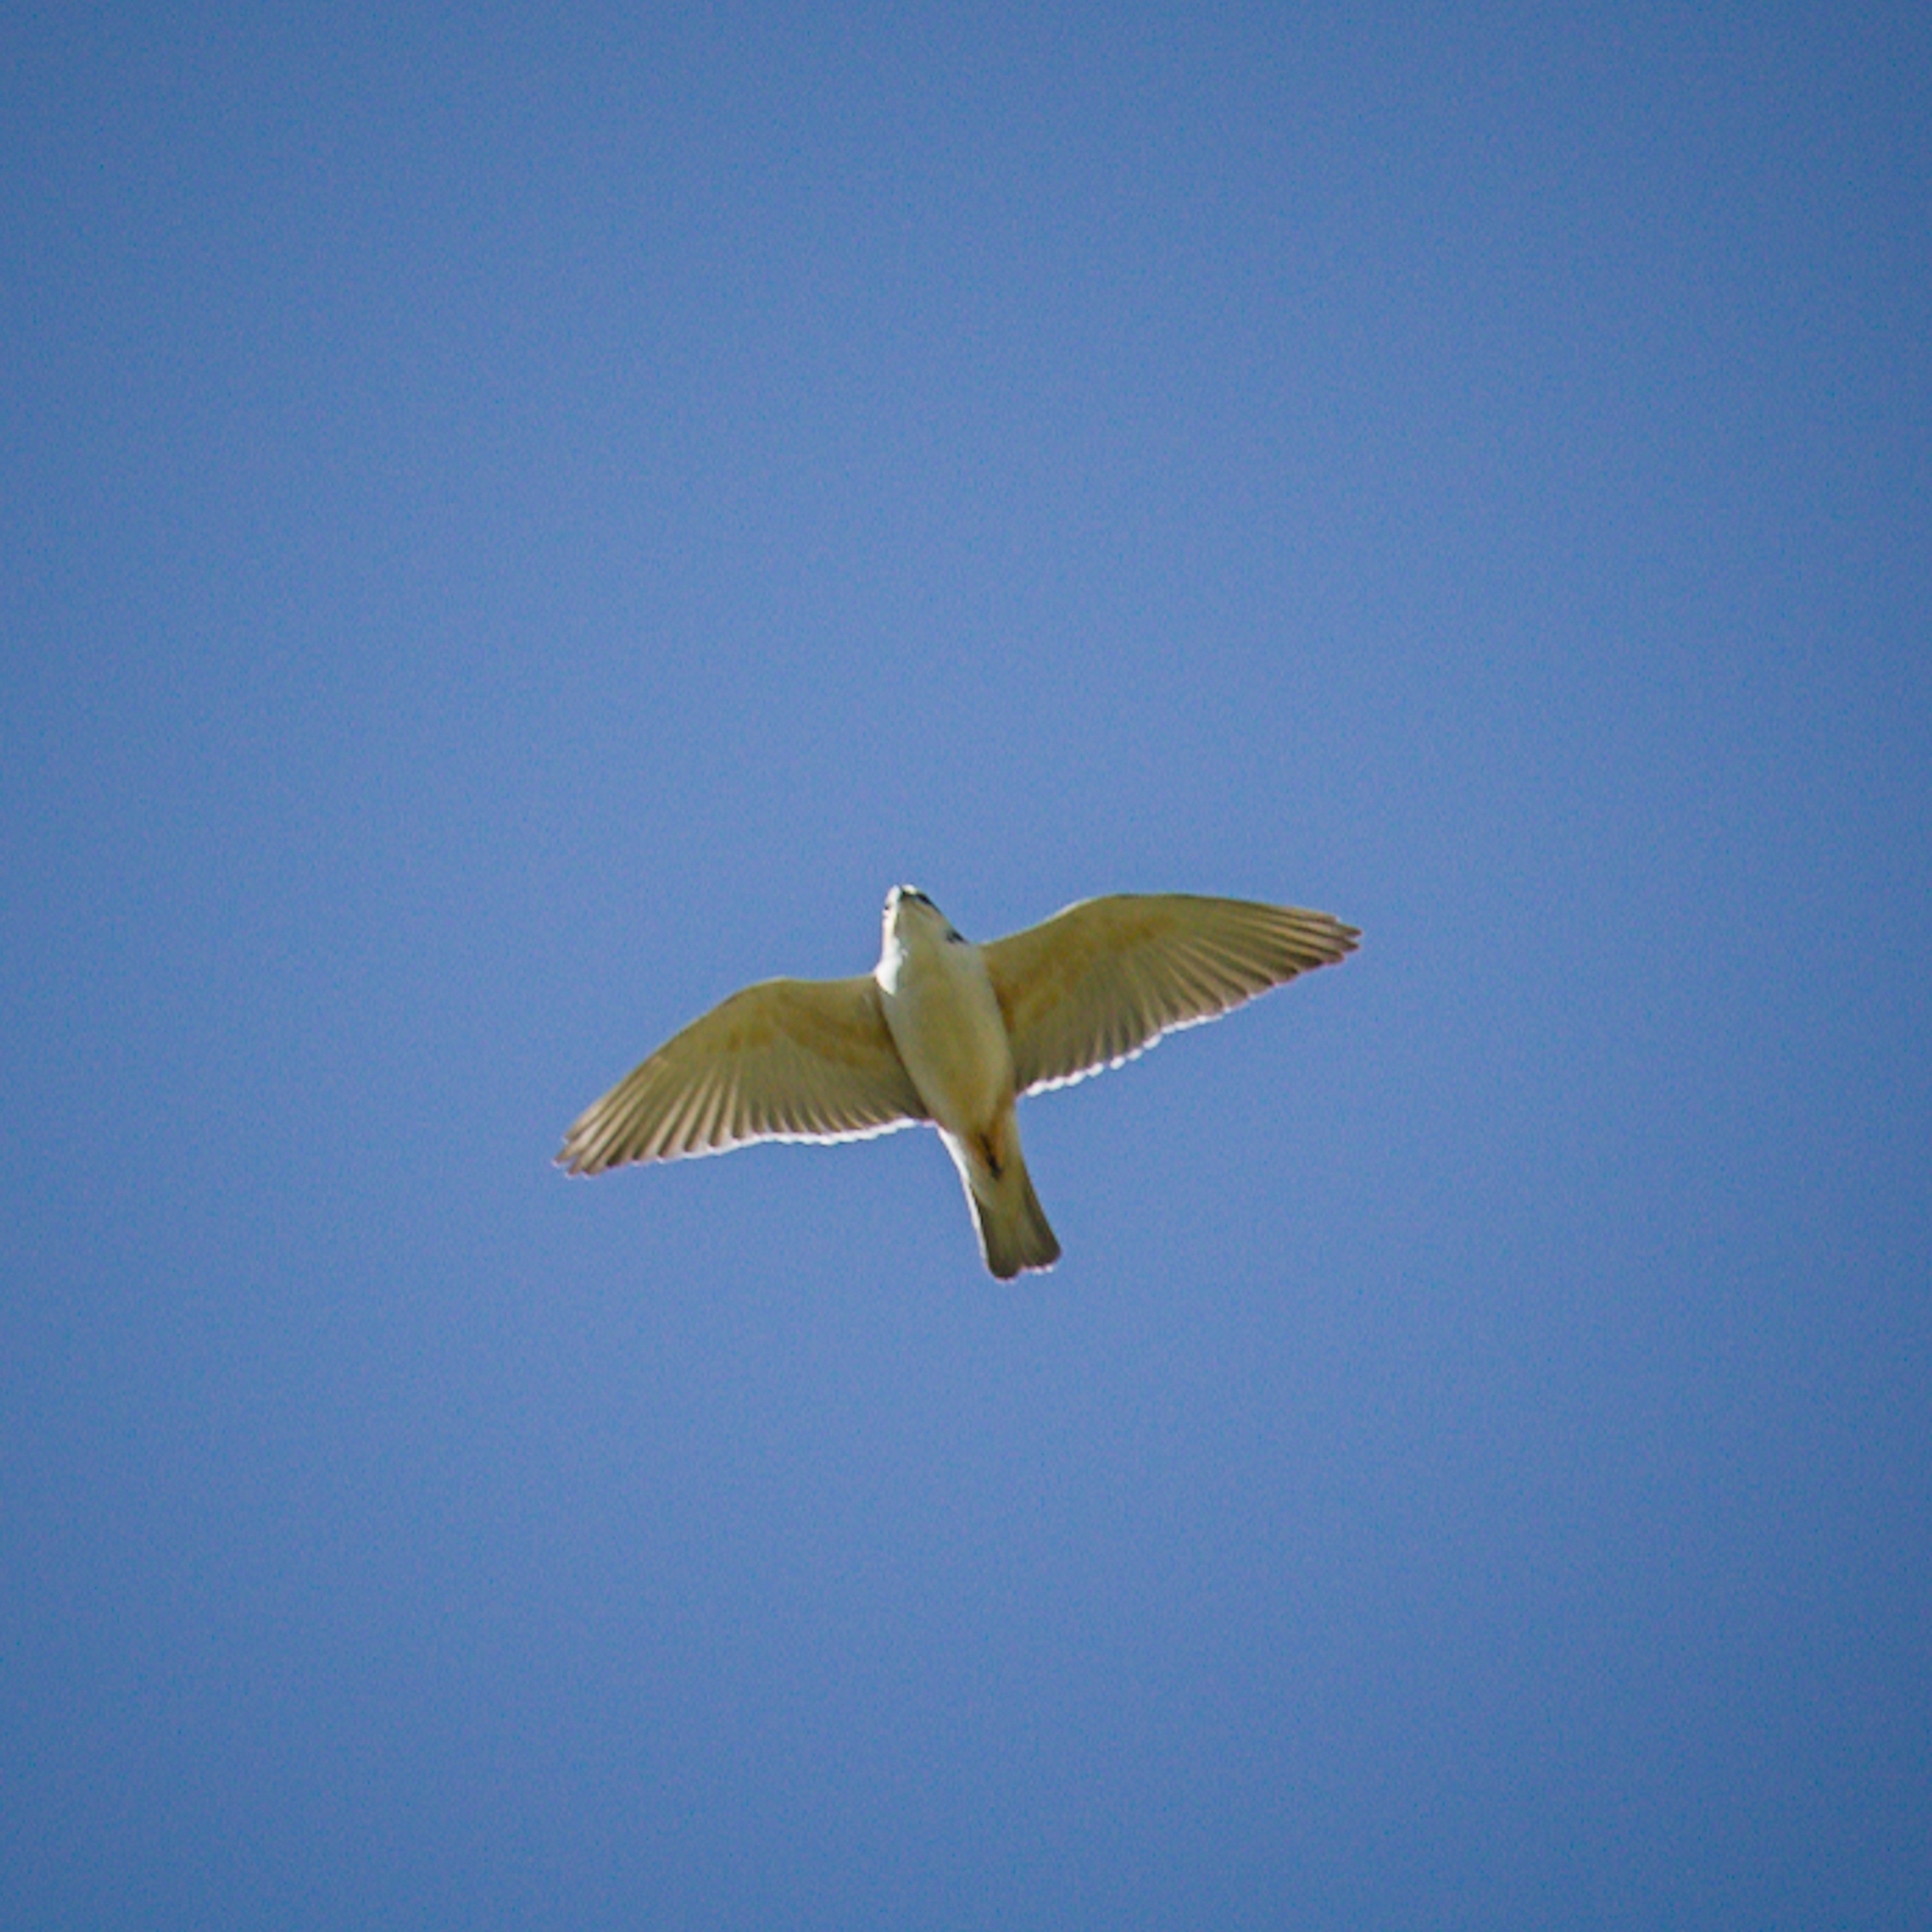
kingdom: Animalia
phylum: Chordata
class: Aves
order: Accipitriformes
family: Accipitridae
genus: Gampsonyx
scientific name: Gampsonyx swainsonii
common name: Pearl kite
